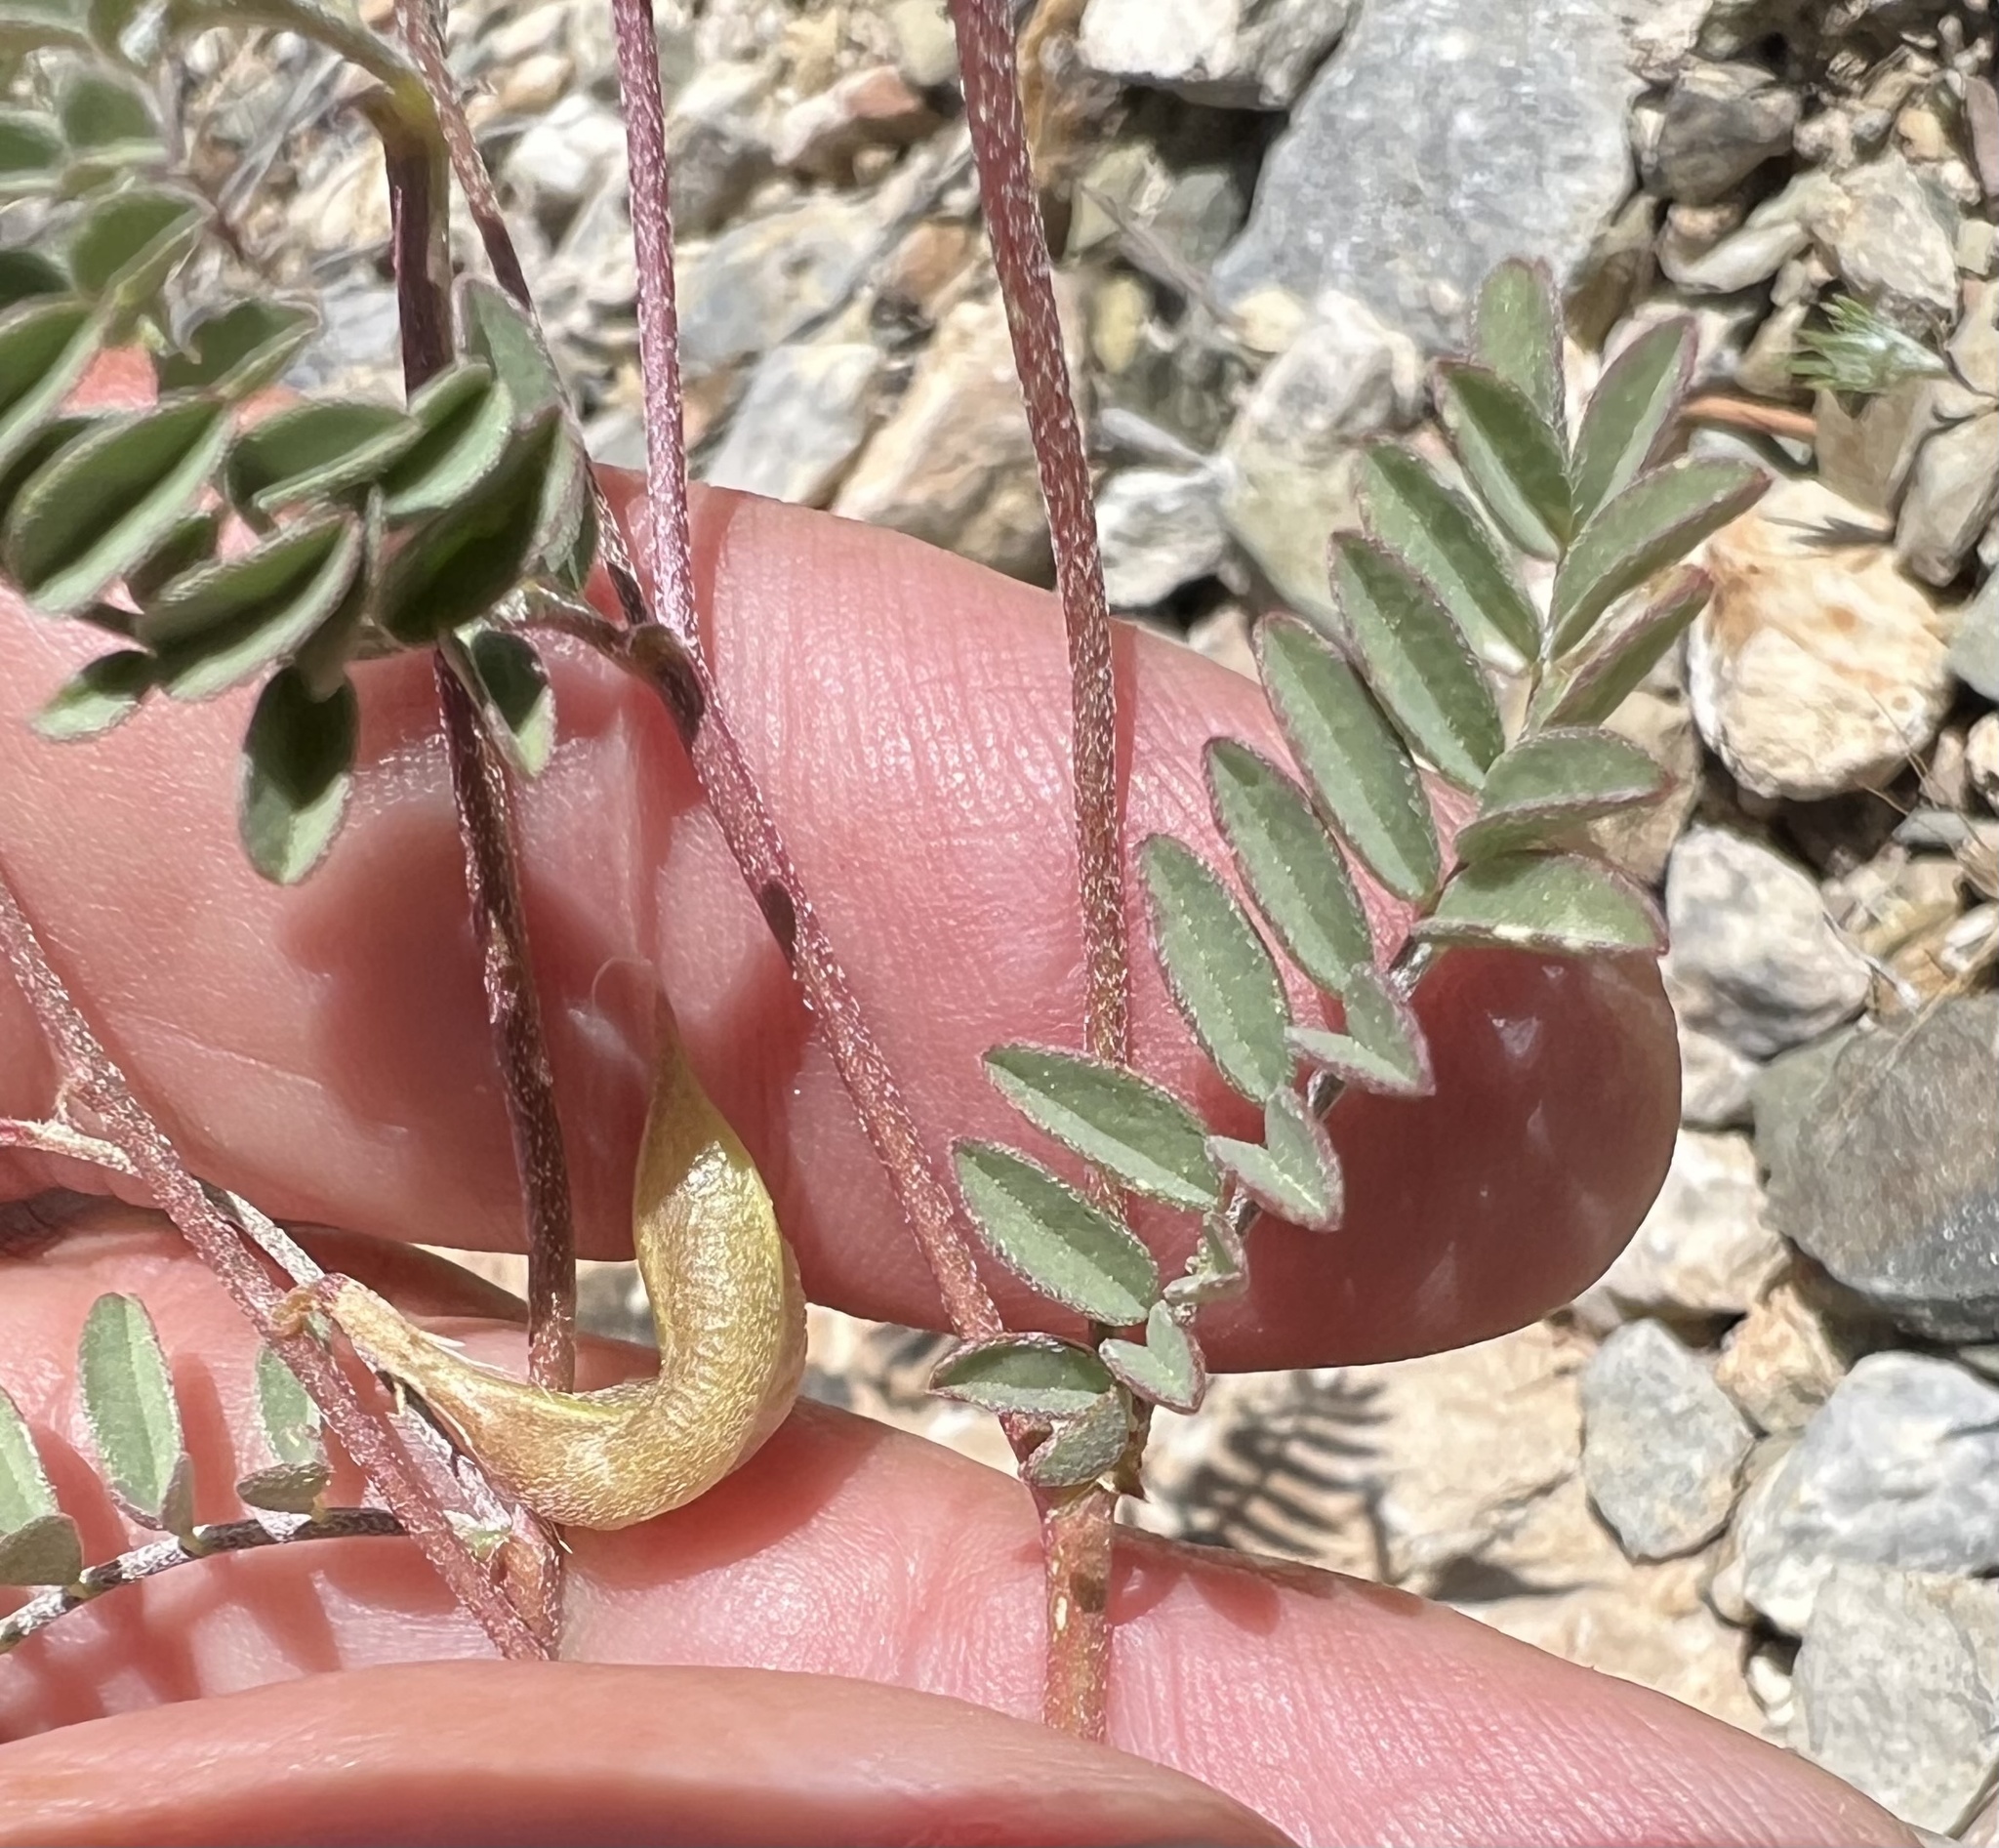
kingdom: Plantae
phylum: Tracheophyta
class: Magnoliopsida
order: Fabales
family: Fabaceae
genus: Astragalus
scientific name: Astragalus inyoensis
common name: Inyo locoweed
